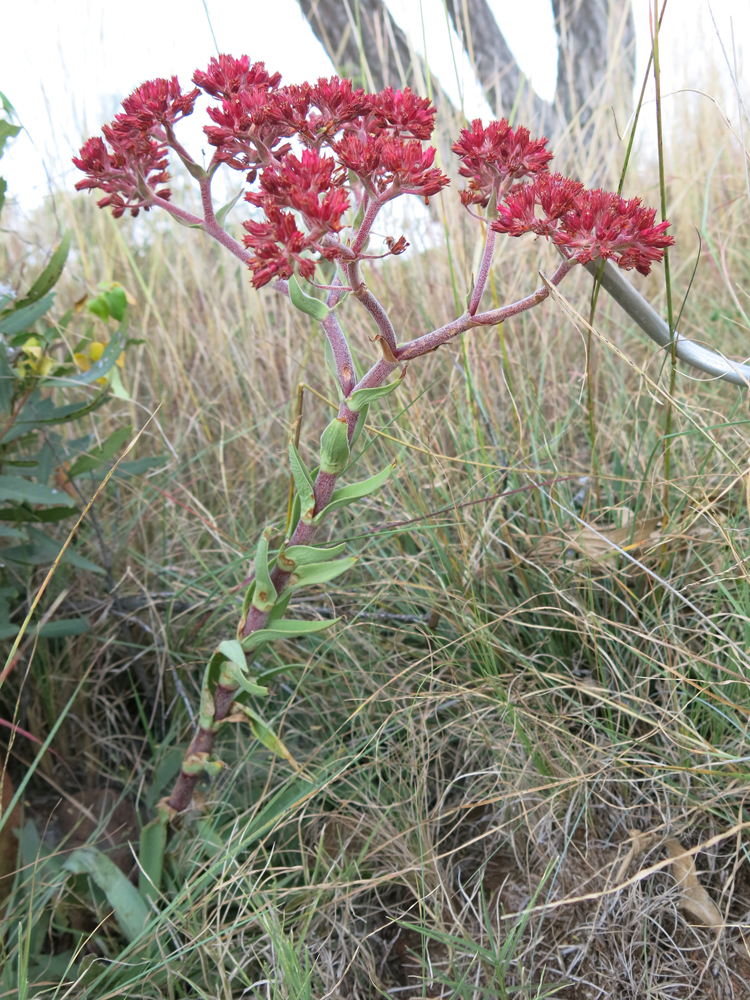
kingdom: Plantae
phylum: Tracheophyta
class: Magnoliopsida
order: Saxifragales
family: Crassulaceae
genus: Crassula
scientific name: Crassula alba
